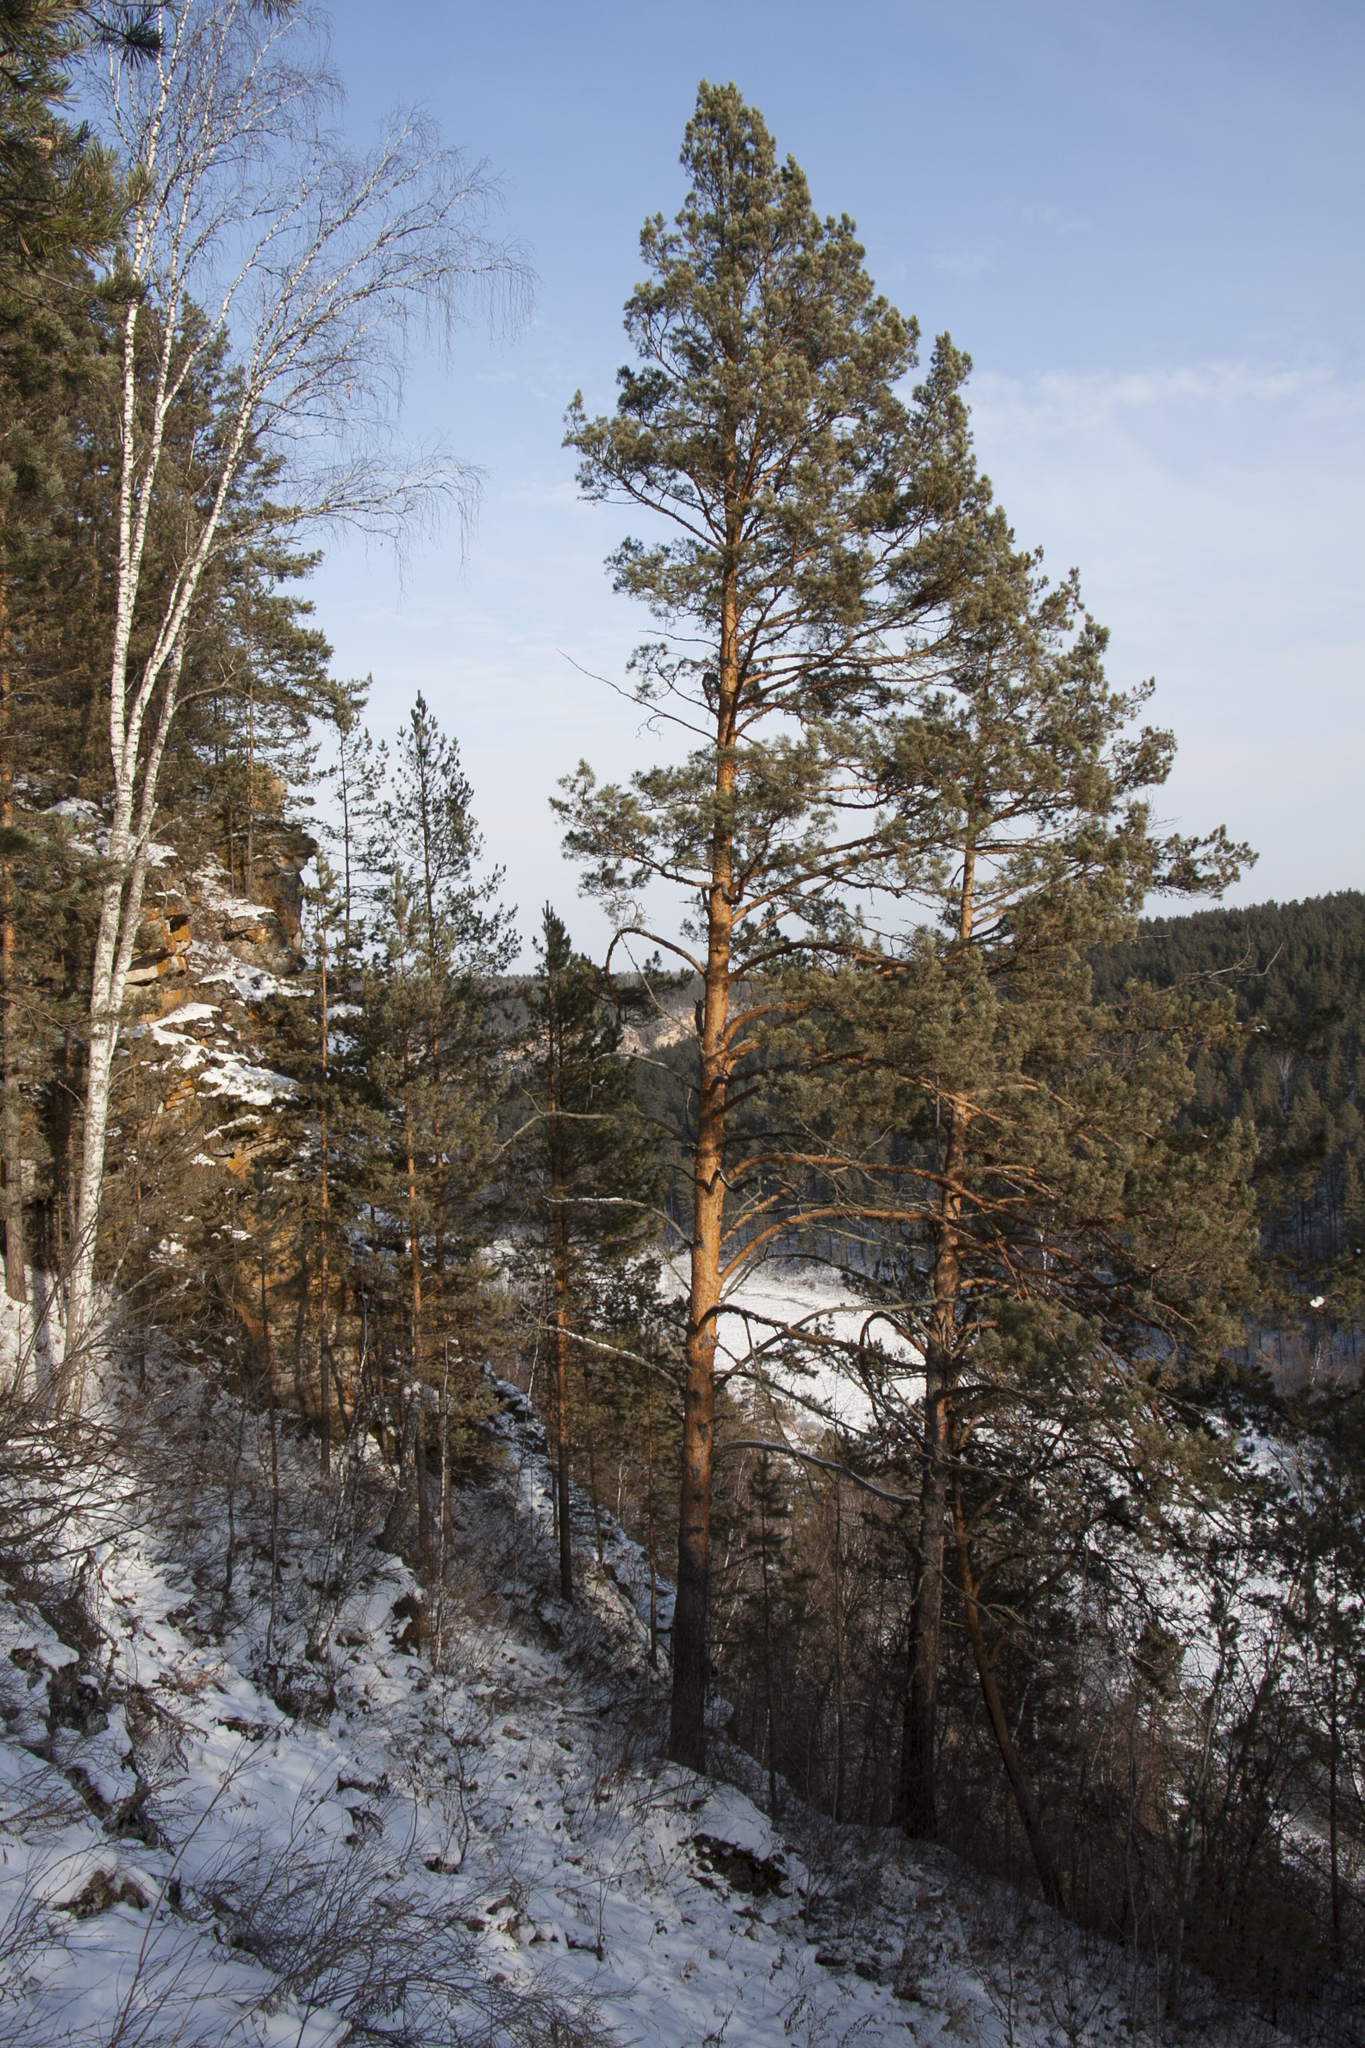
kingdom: Plantae
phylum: Tracheophyta
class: Pinopsida
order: Pinales
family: Pinaceae
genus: Pinus
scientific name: Pinus sylvestris
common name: Scots pine
